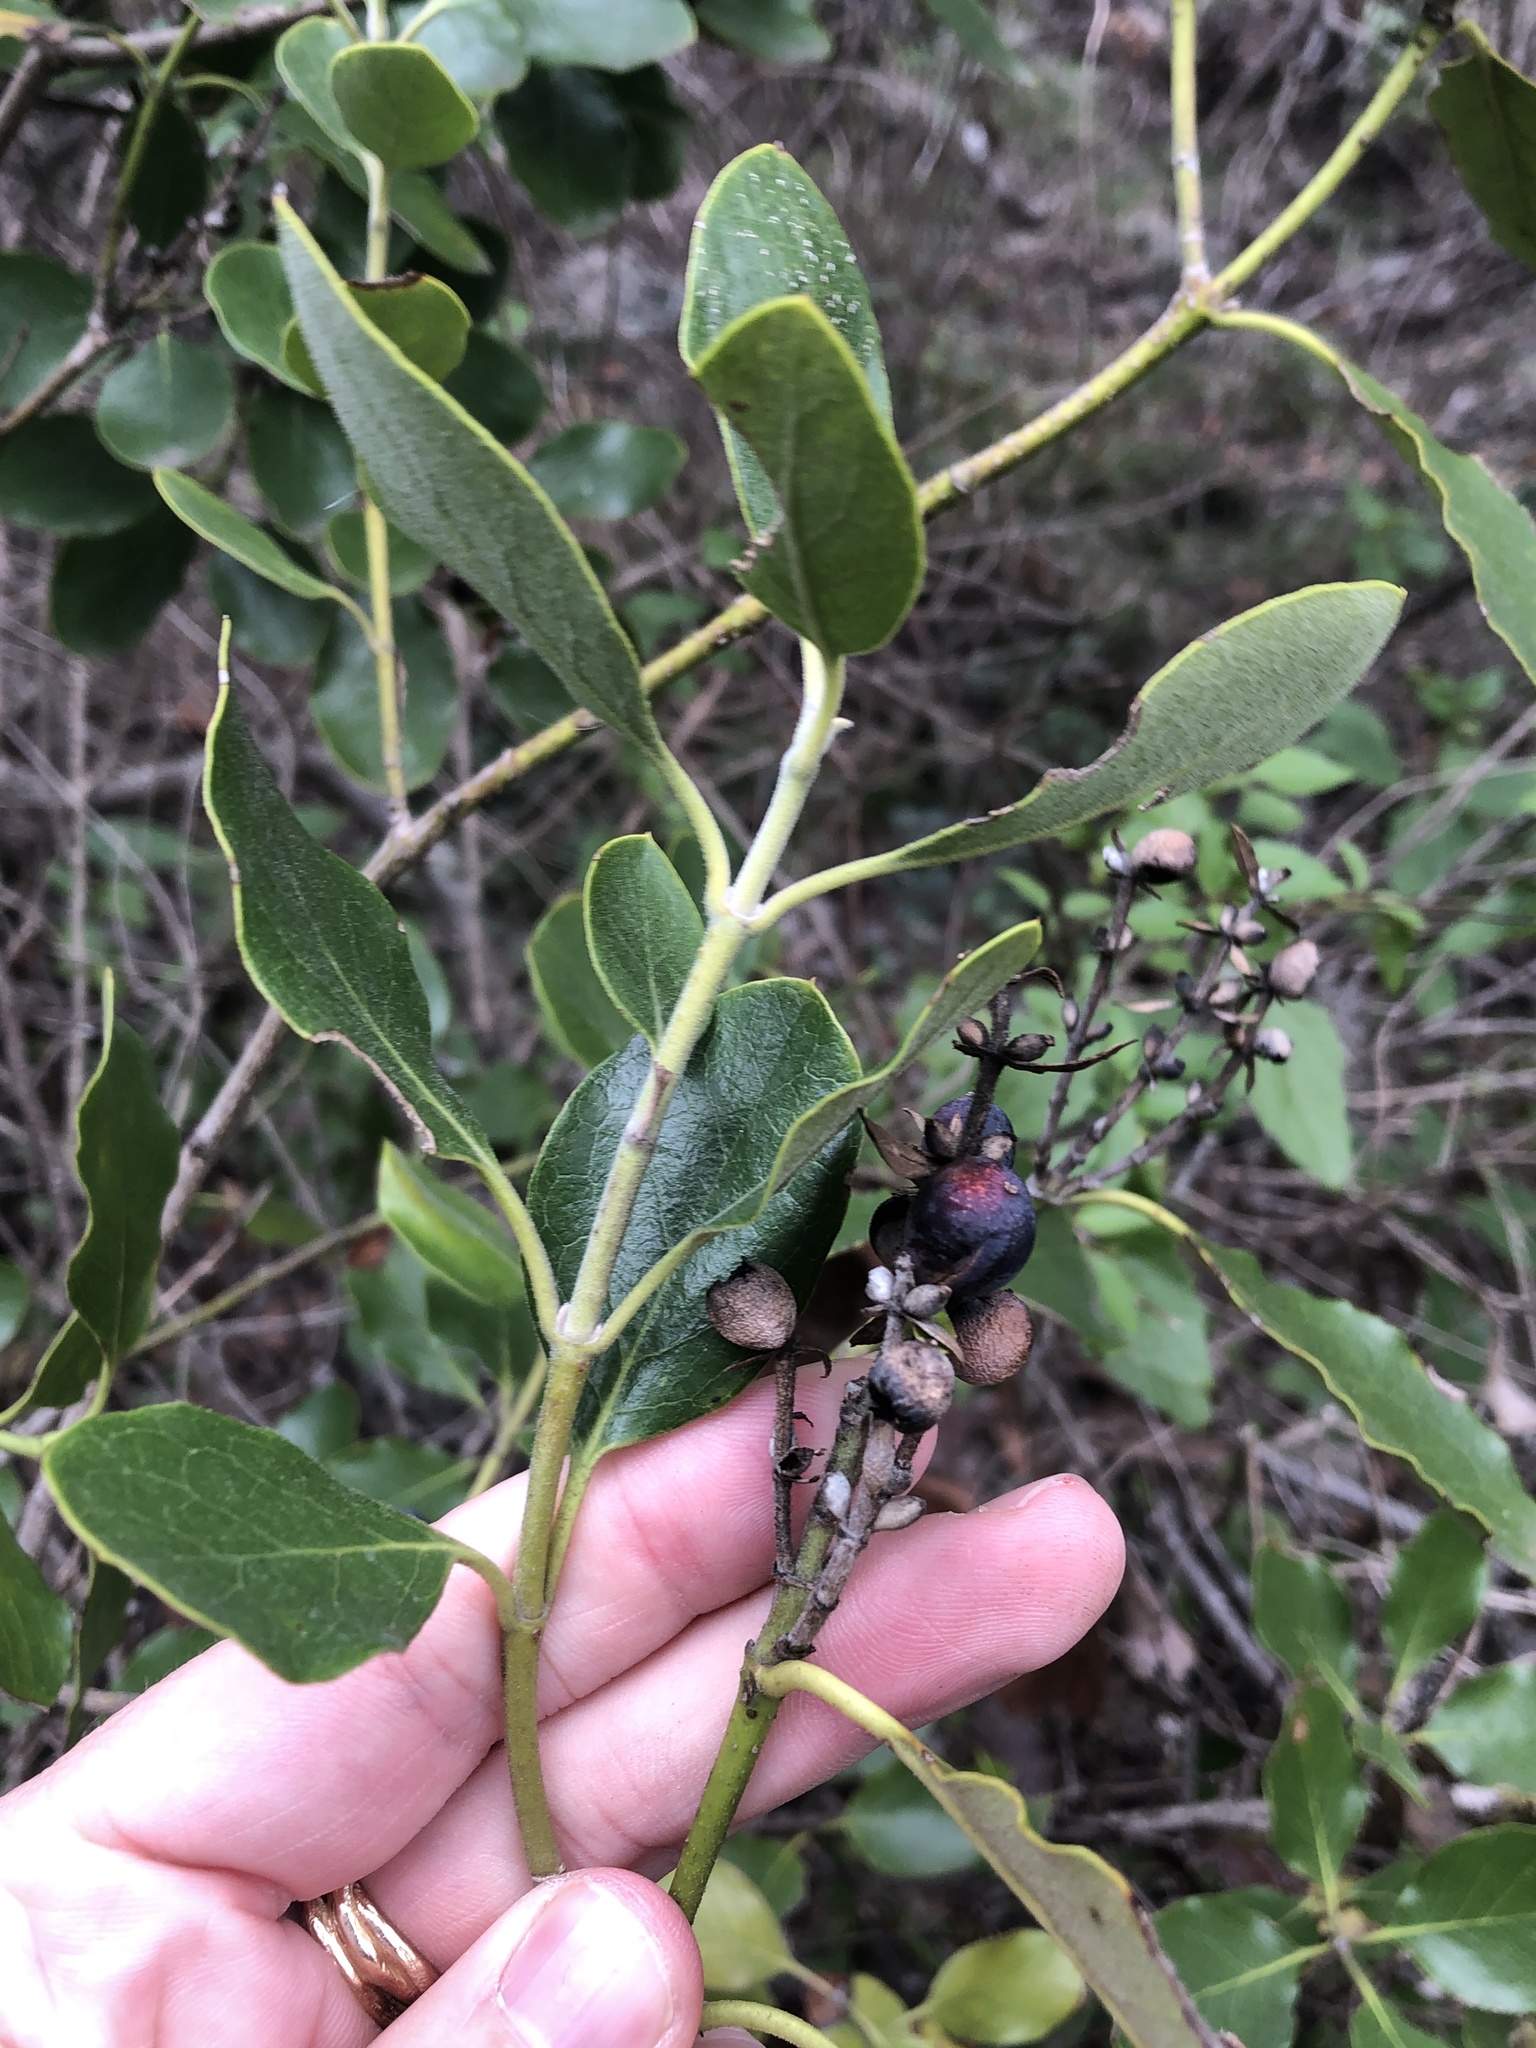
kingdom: Plantae
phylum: Tracheophyta
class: Magnoliopsida
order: Garryales
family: Garryaceae
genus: Garrya
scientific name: Garrya lindheimeri
